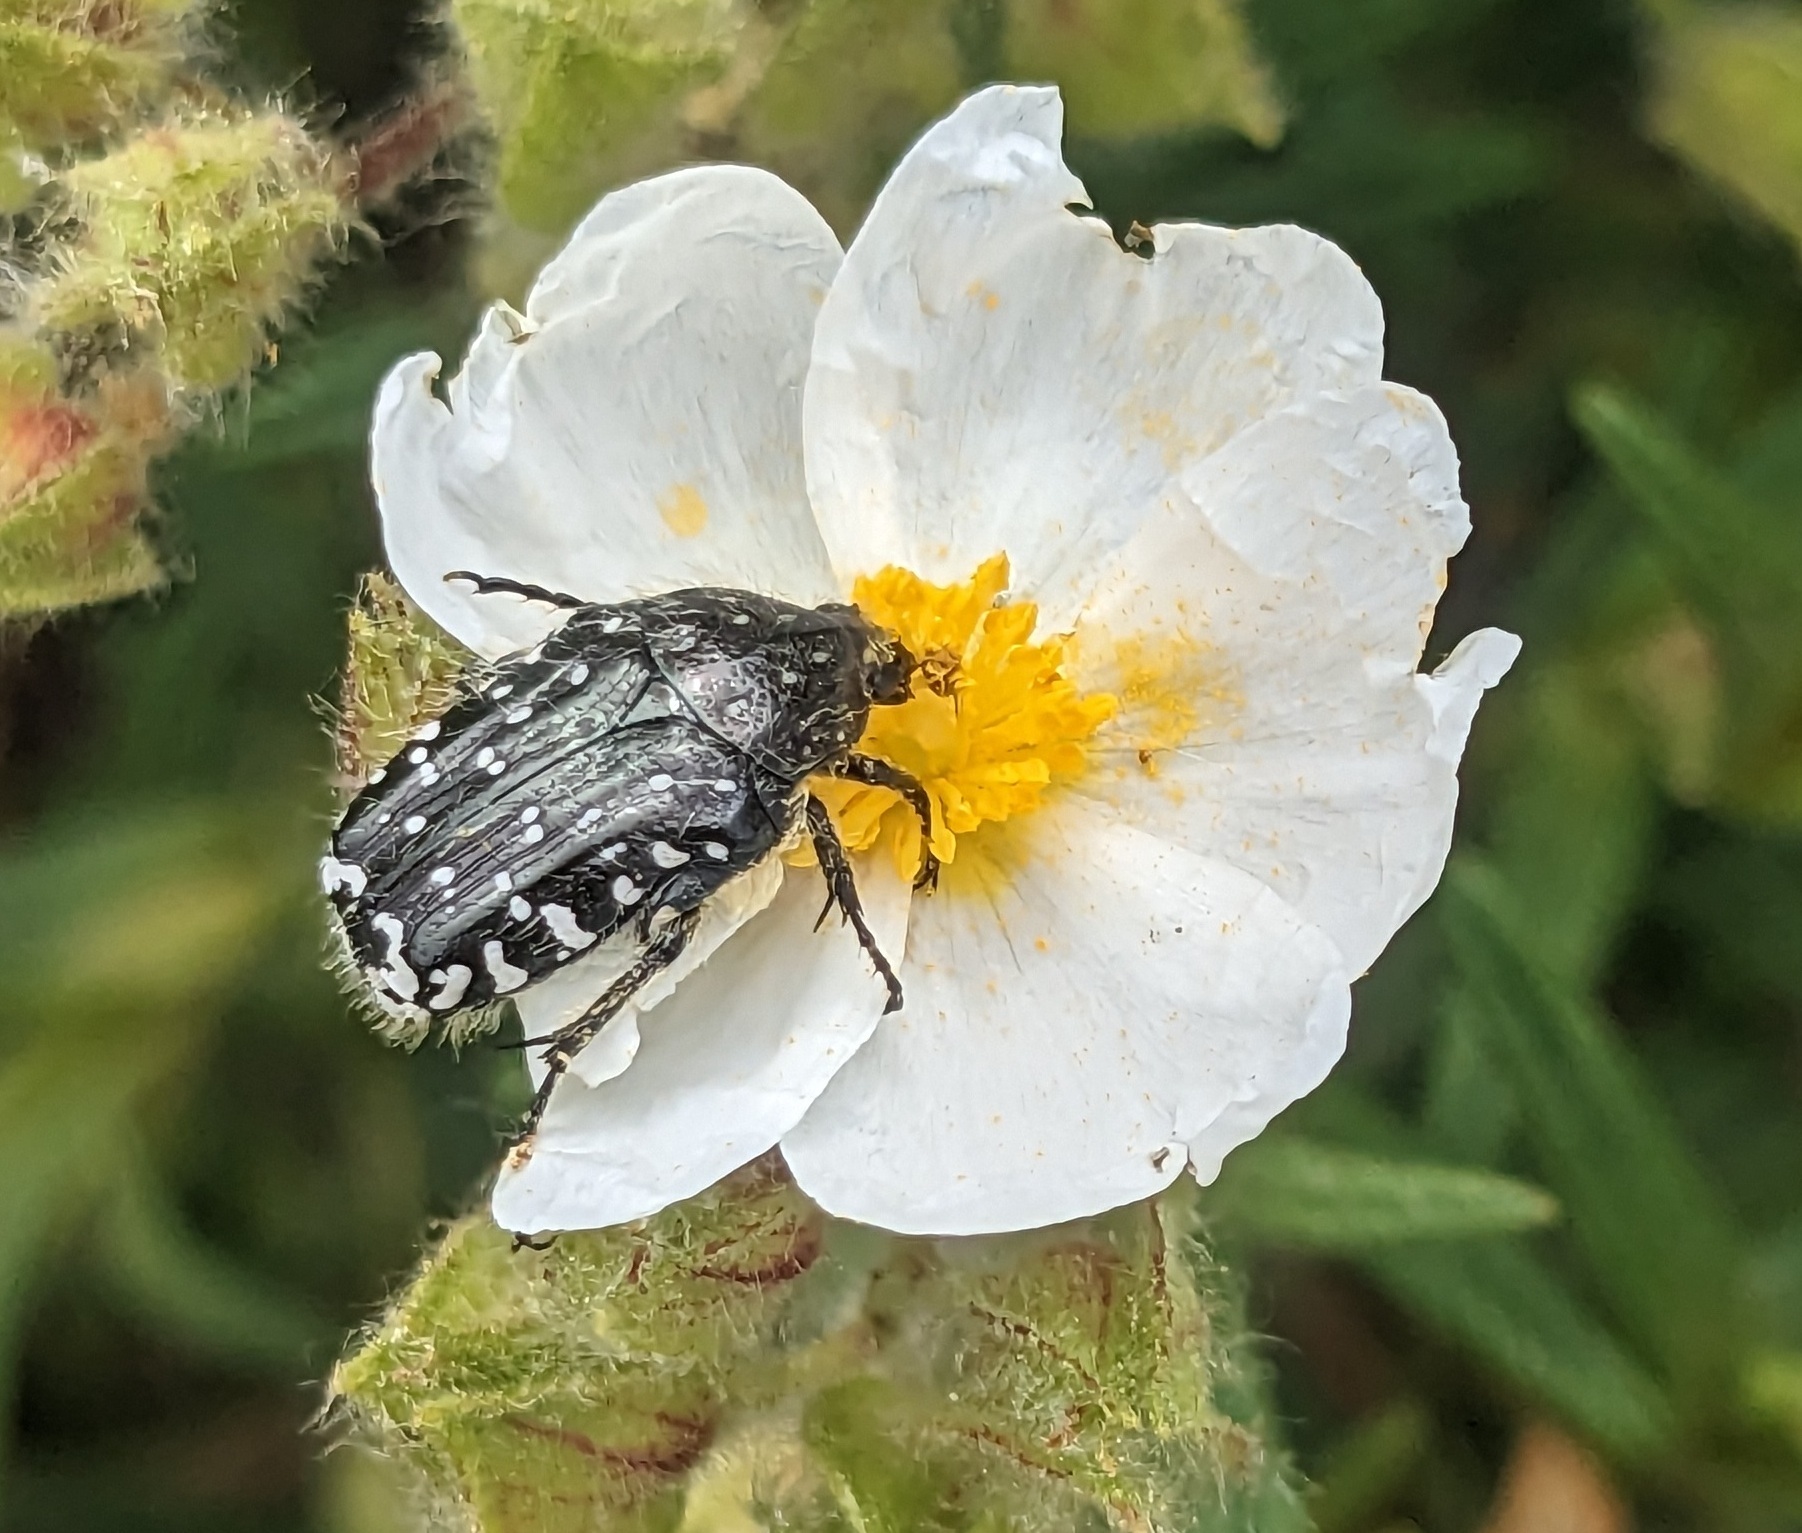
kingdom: Animalia
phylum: Arthropoda
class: Insecta
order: Coleoptera
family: Scarabaeidae
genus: Oxythyrea
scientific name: Oxythyrea funesta
